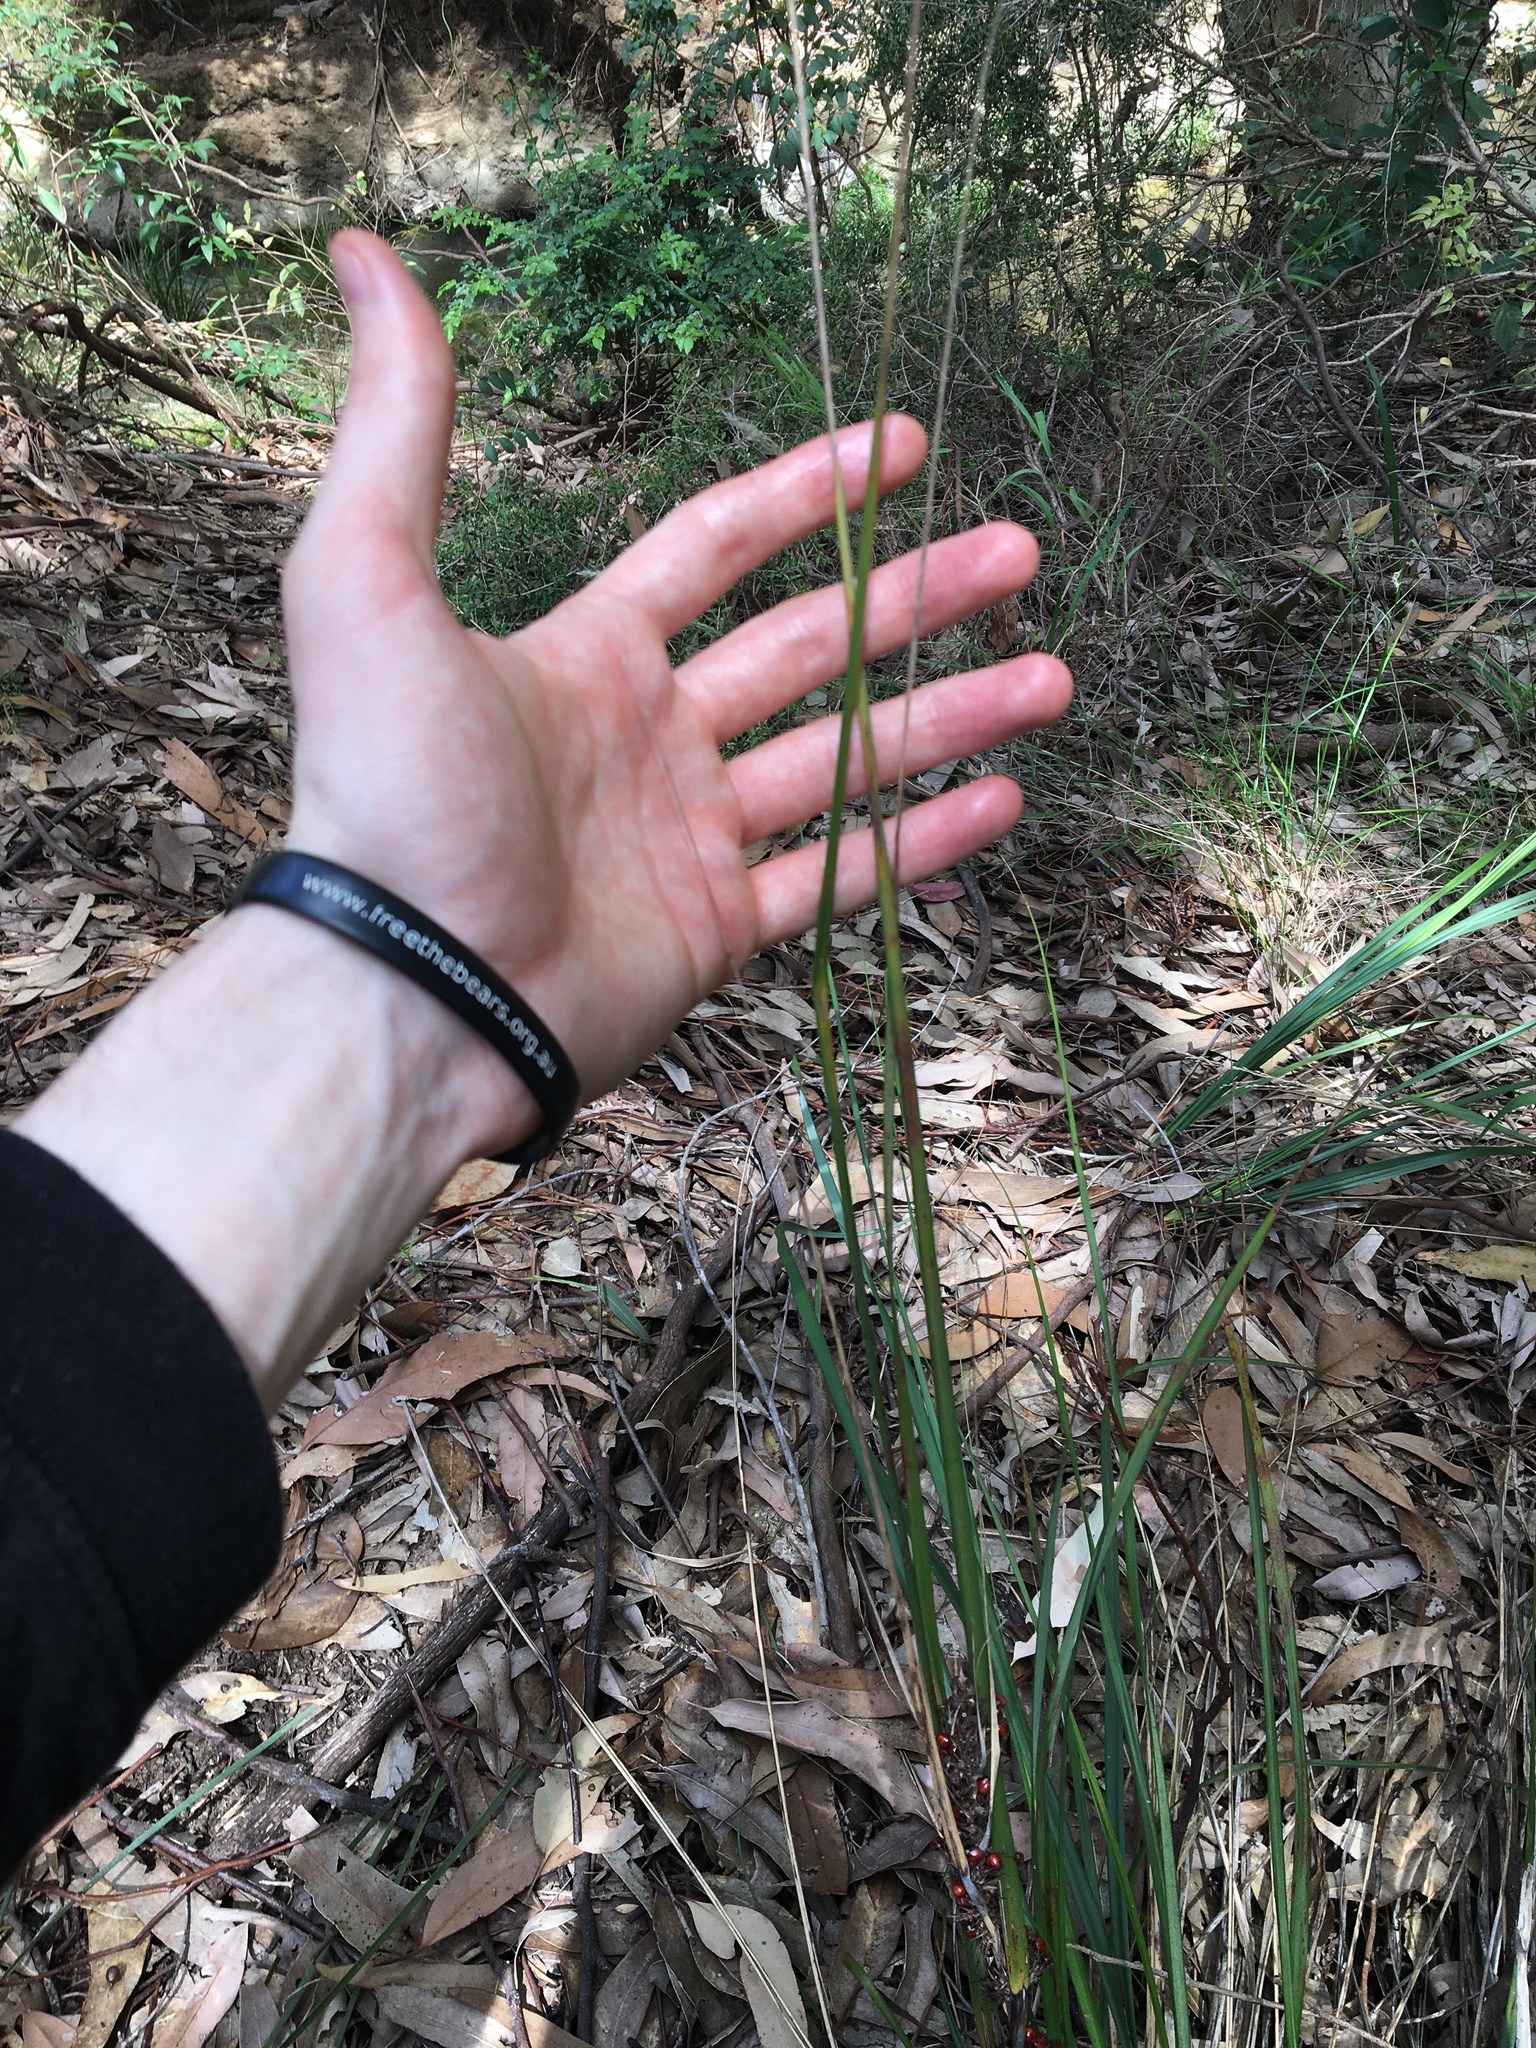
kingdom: Plantae
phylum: Tracheophyta
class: Liliopsida
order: Poales
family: Cyperaceae
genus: Gahnia
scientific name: Gahnia aspera
